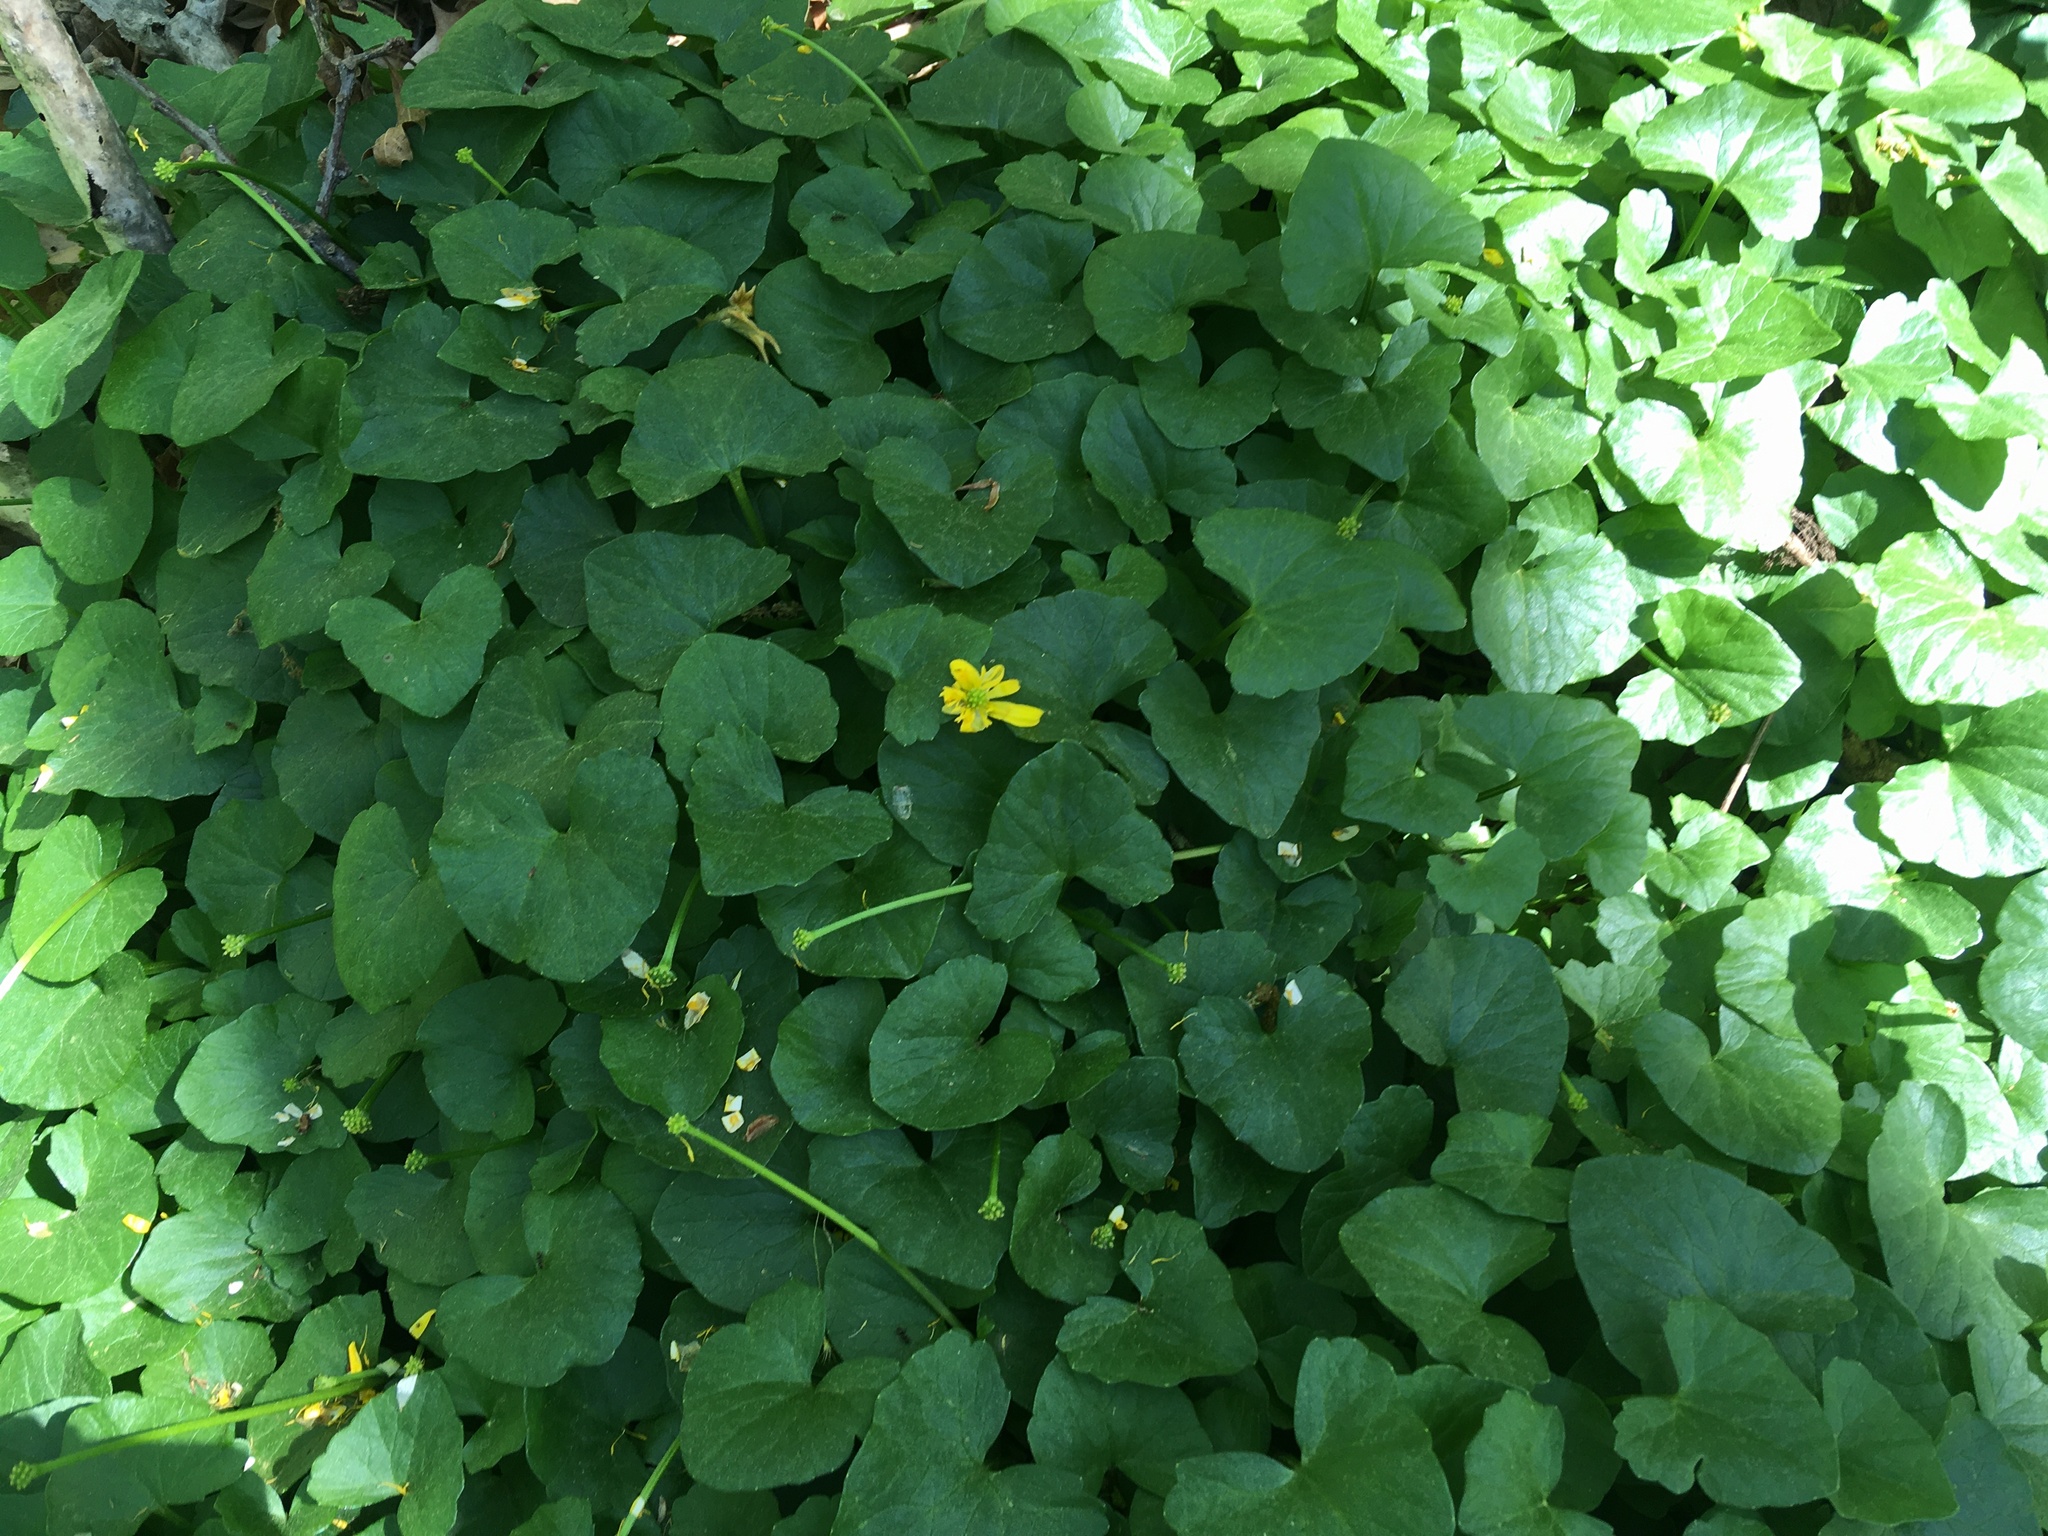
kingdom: Plantae
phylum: Tracheophyta
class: Magnoliopsida
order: Ranunculales
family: Ranunculaceae
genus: Ficaria
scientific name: Ficaria verna
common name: Lesser celandine
